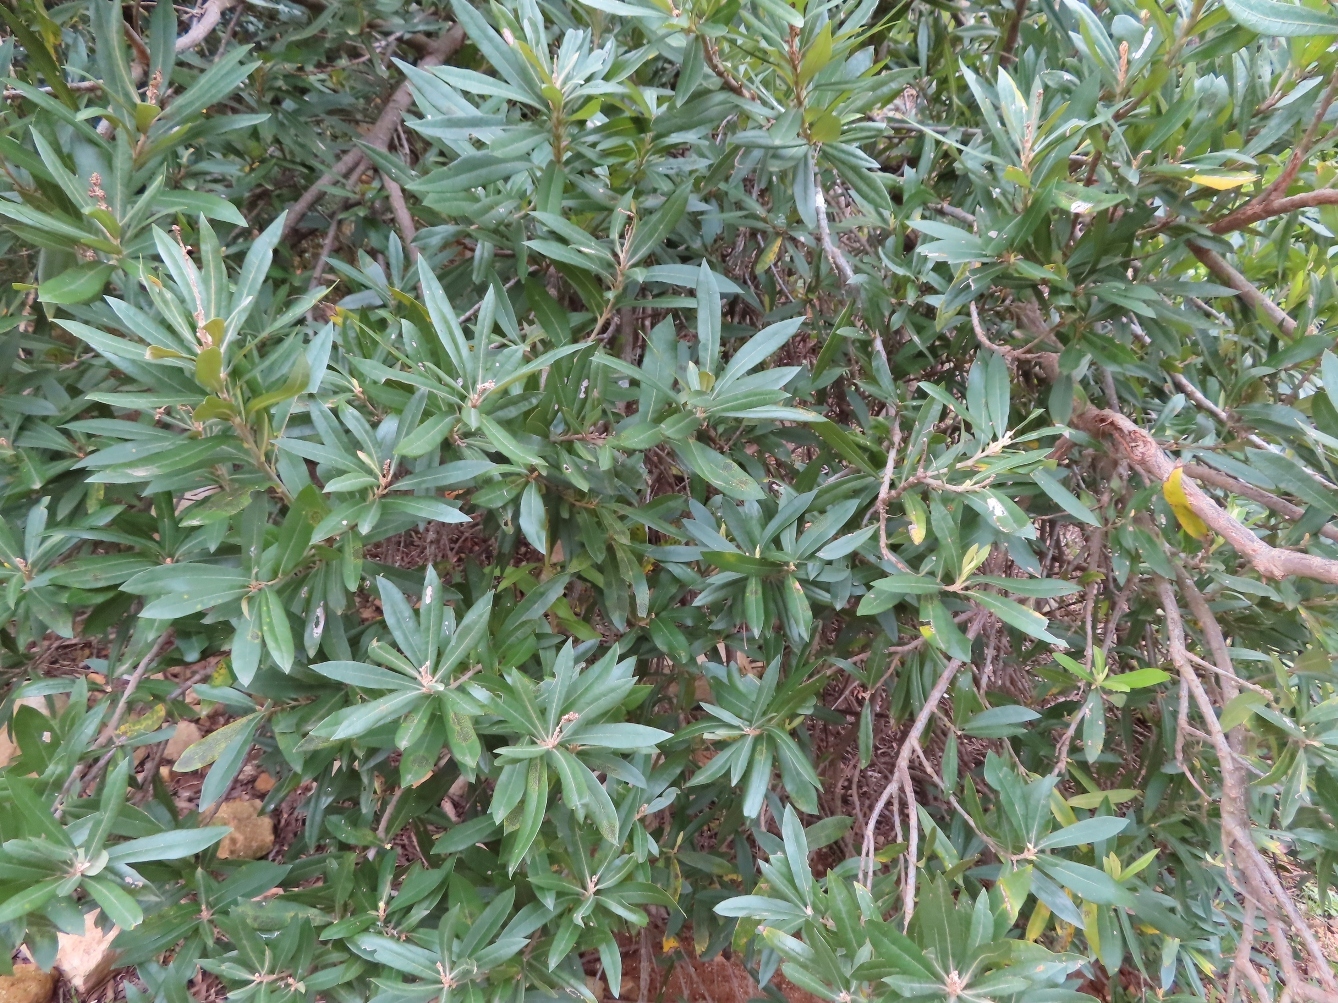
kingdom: Plantae
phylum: Tracheophyta
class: Magnoliopsida
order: Asterales
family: Asteraceae
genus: Brachylaena
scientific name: Brachylaena neriifolia
